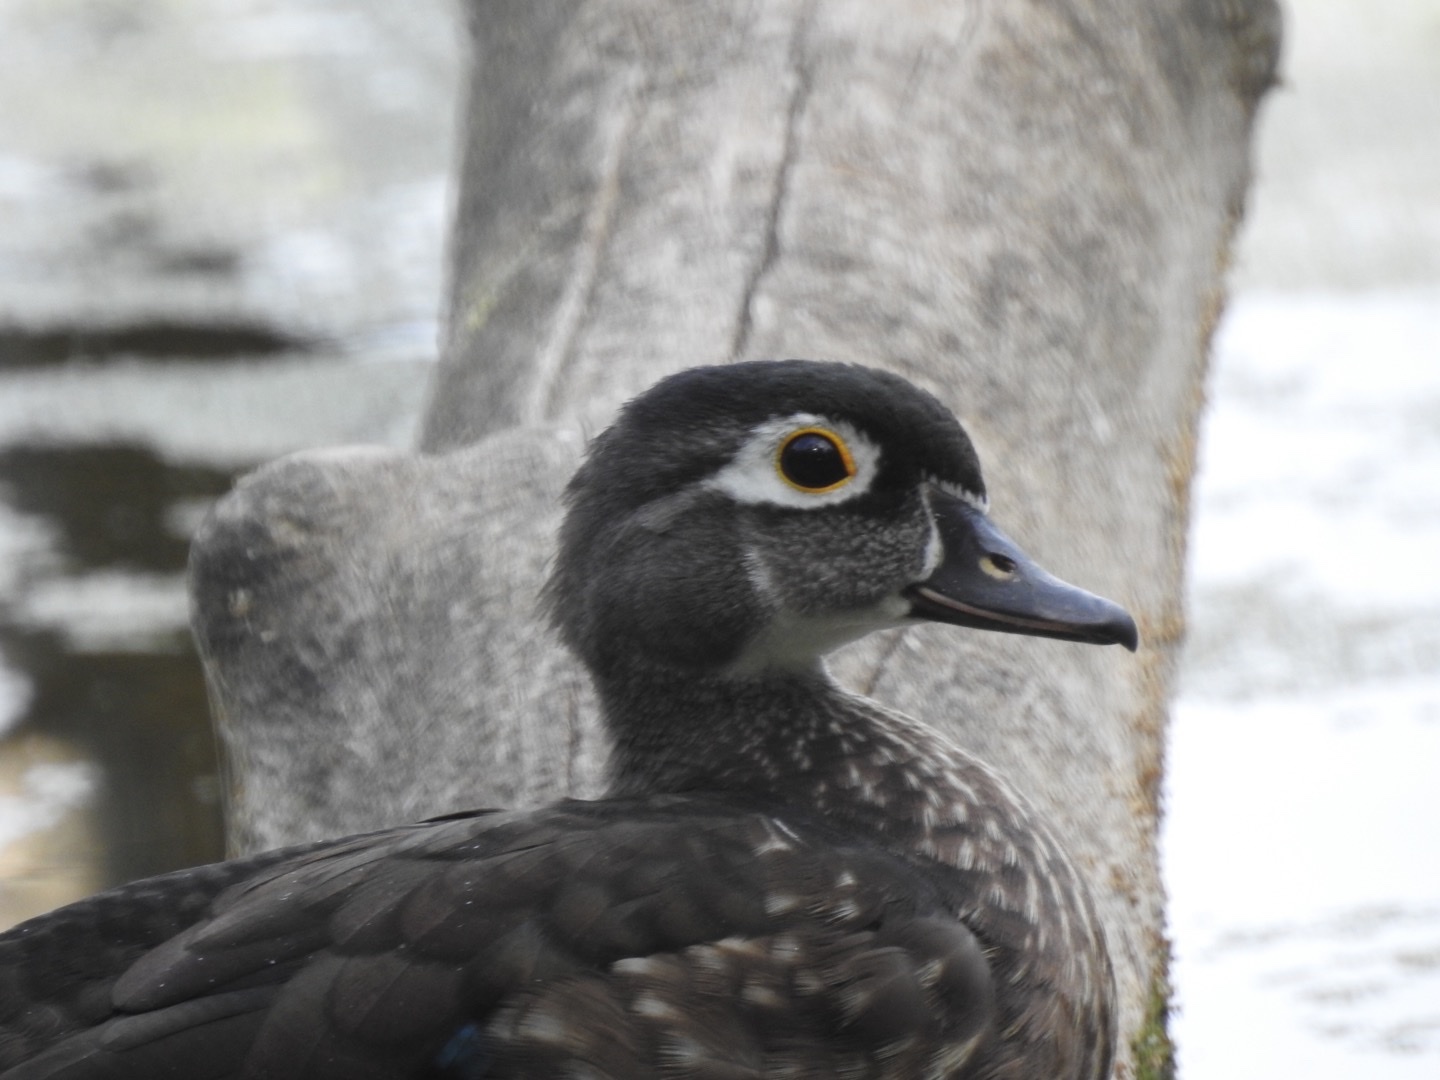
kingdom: Animalia
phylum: Chordata
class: Aves
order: Anseriformes
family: Anatidae
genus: Aix
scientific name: Aix sponsa
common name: Wood duck
